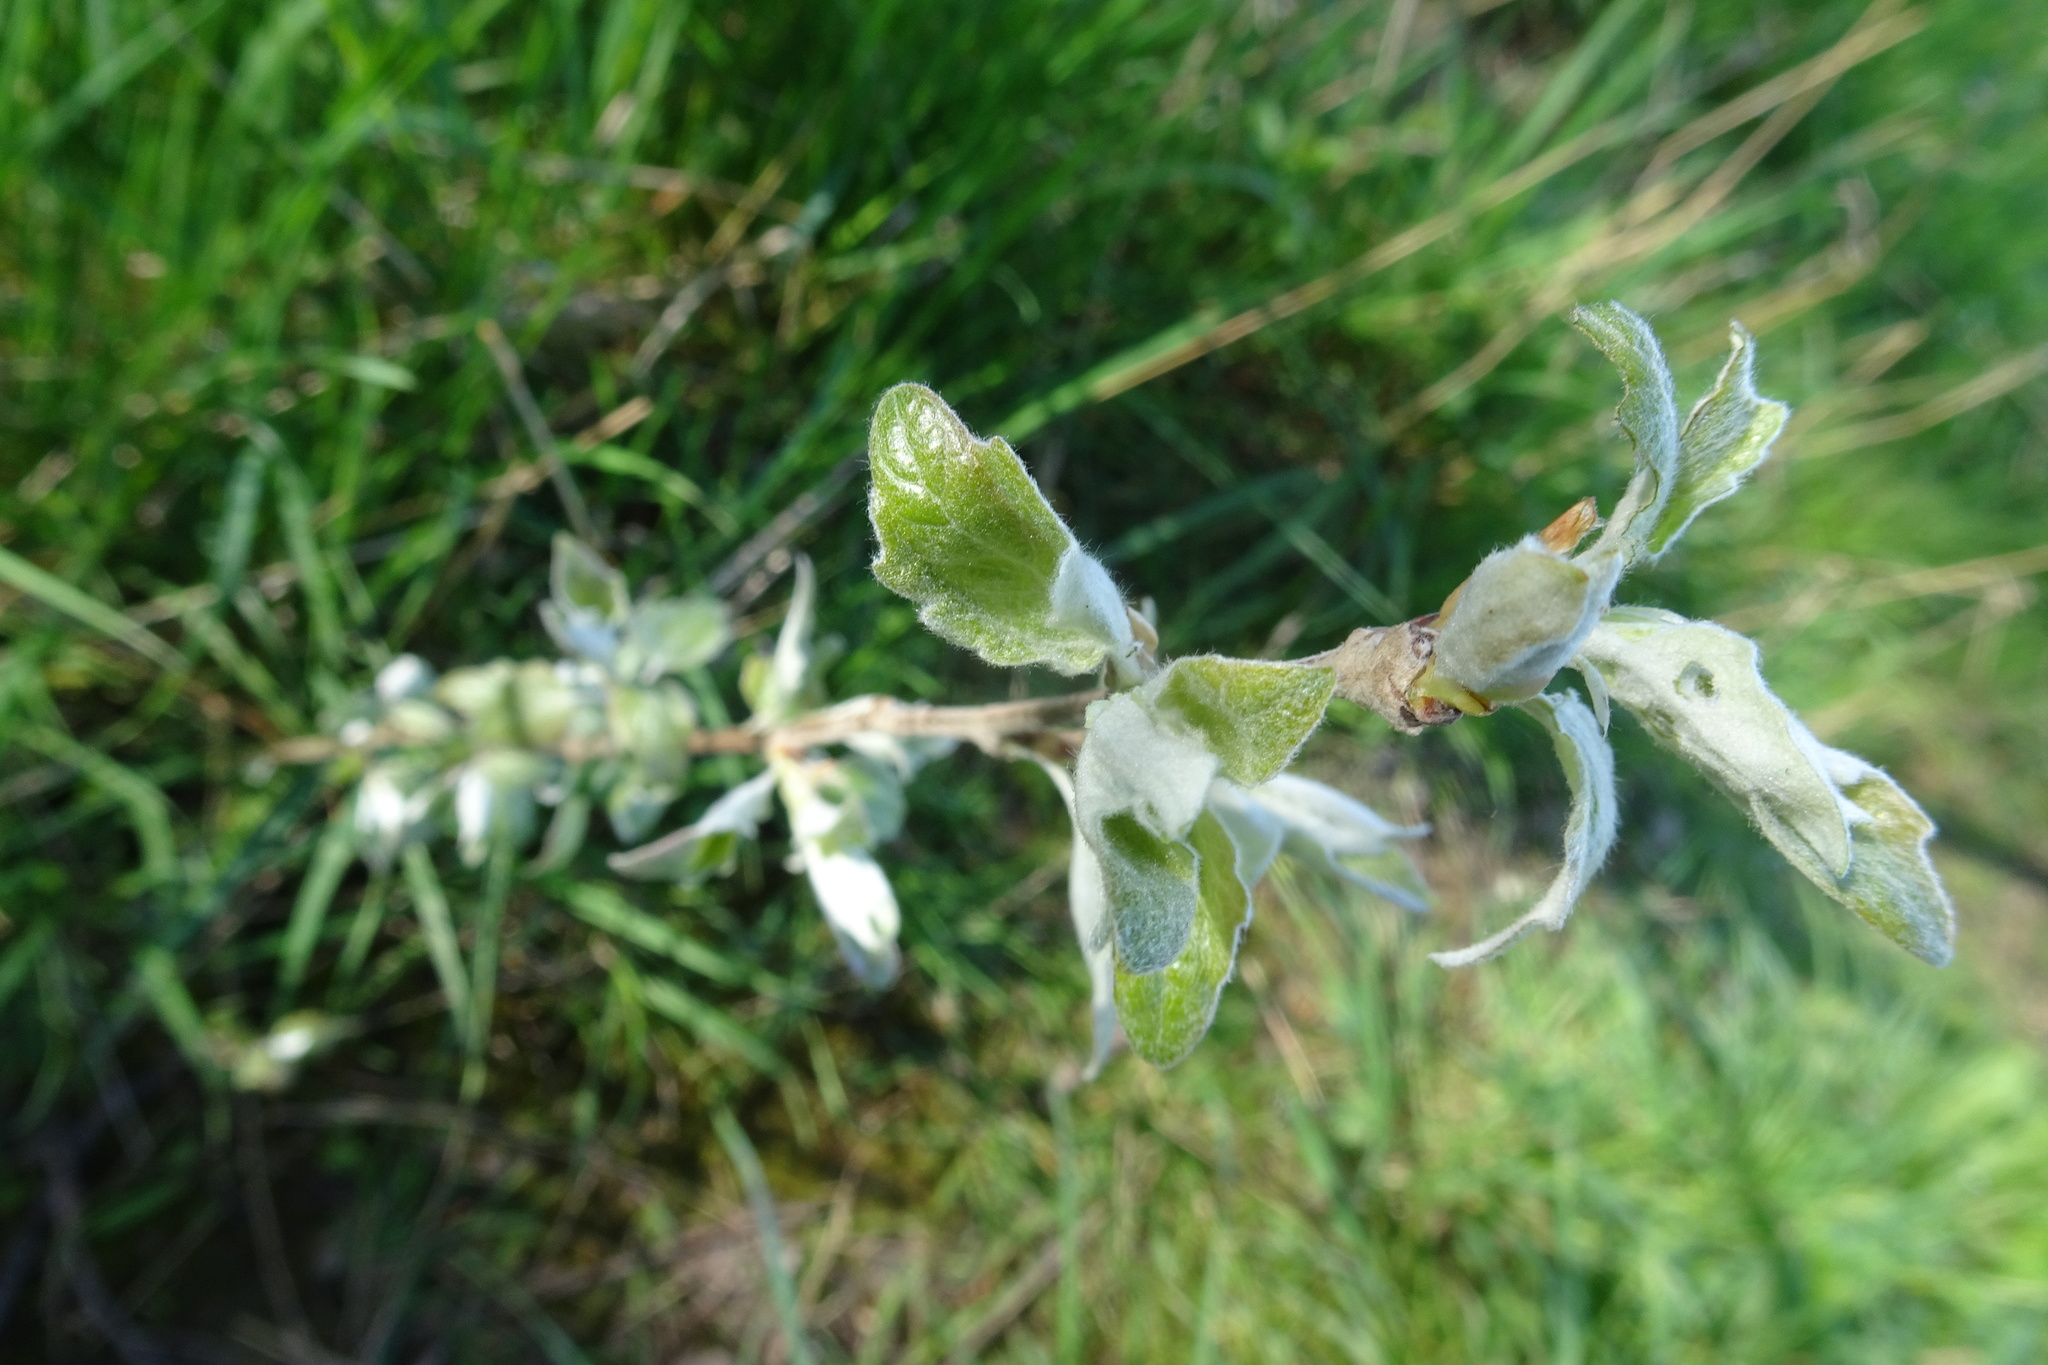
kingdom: Plantae
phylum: Tracheophyta
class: Magnoliopsida
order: Malpighiales
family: Salicaceae
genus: Populus
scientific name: Populus alba
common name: White poplar
